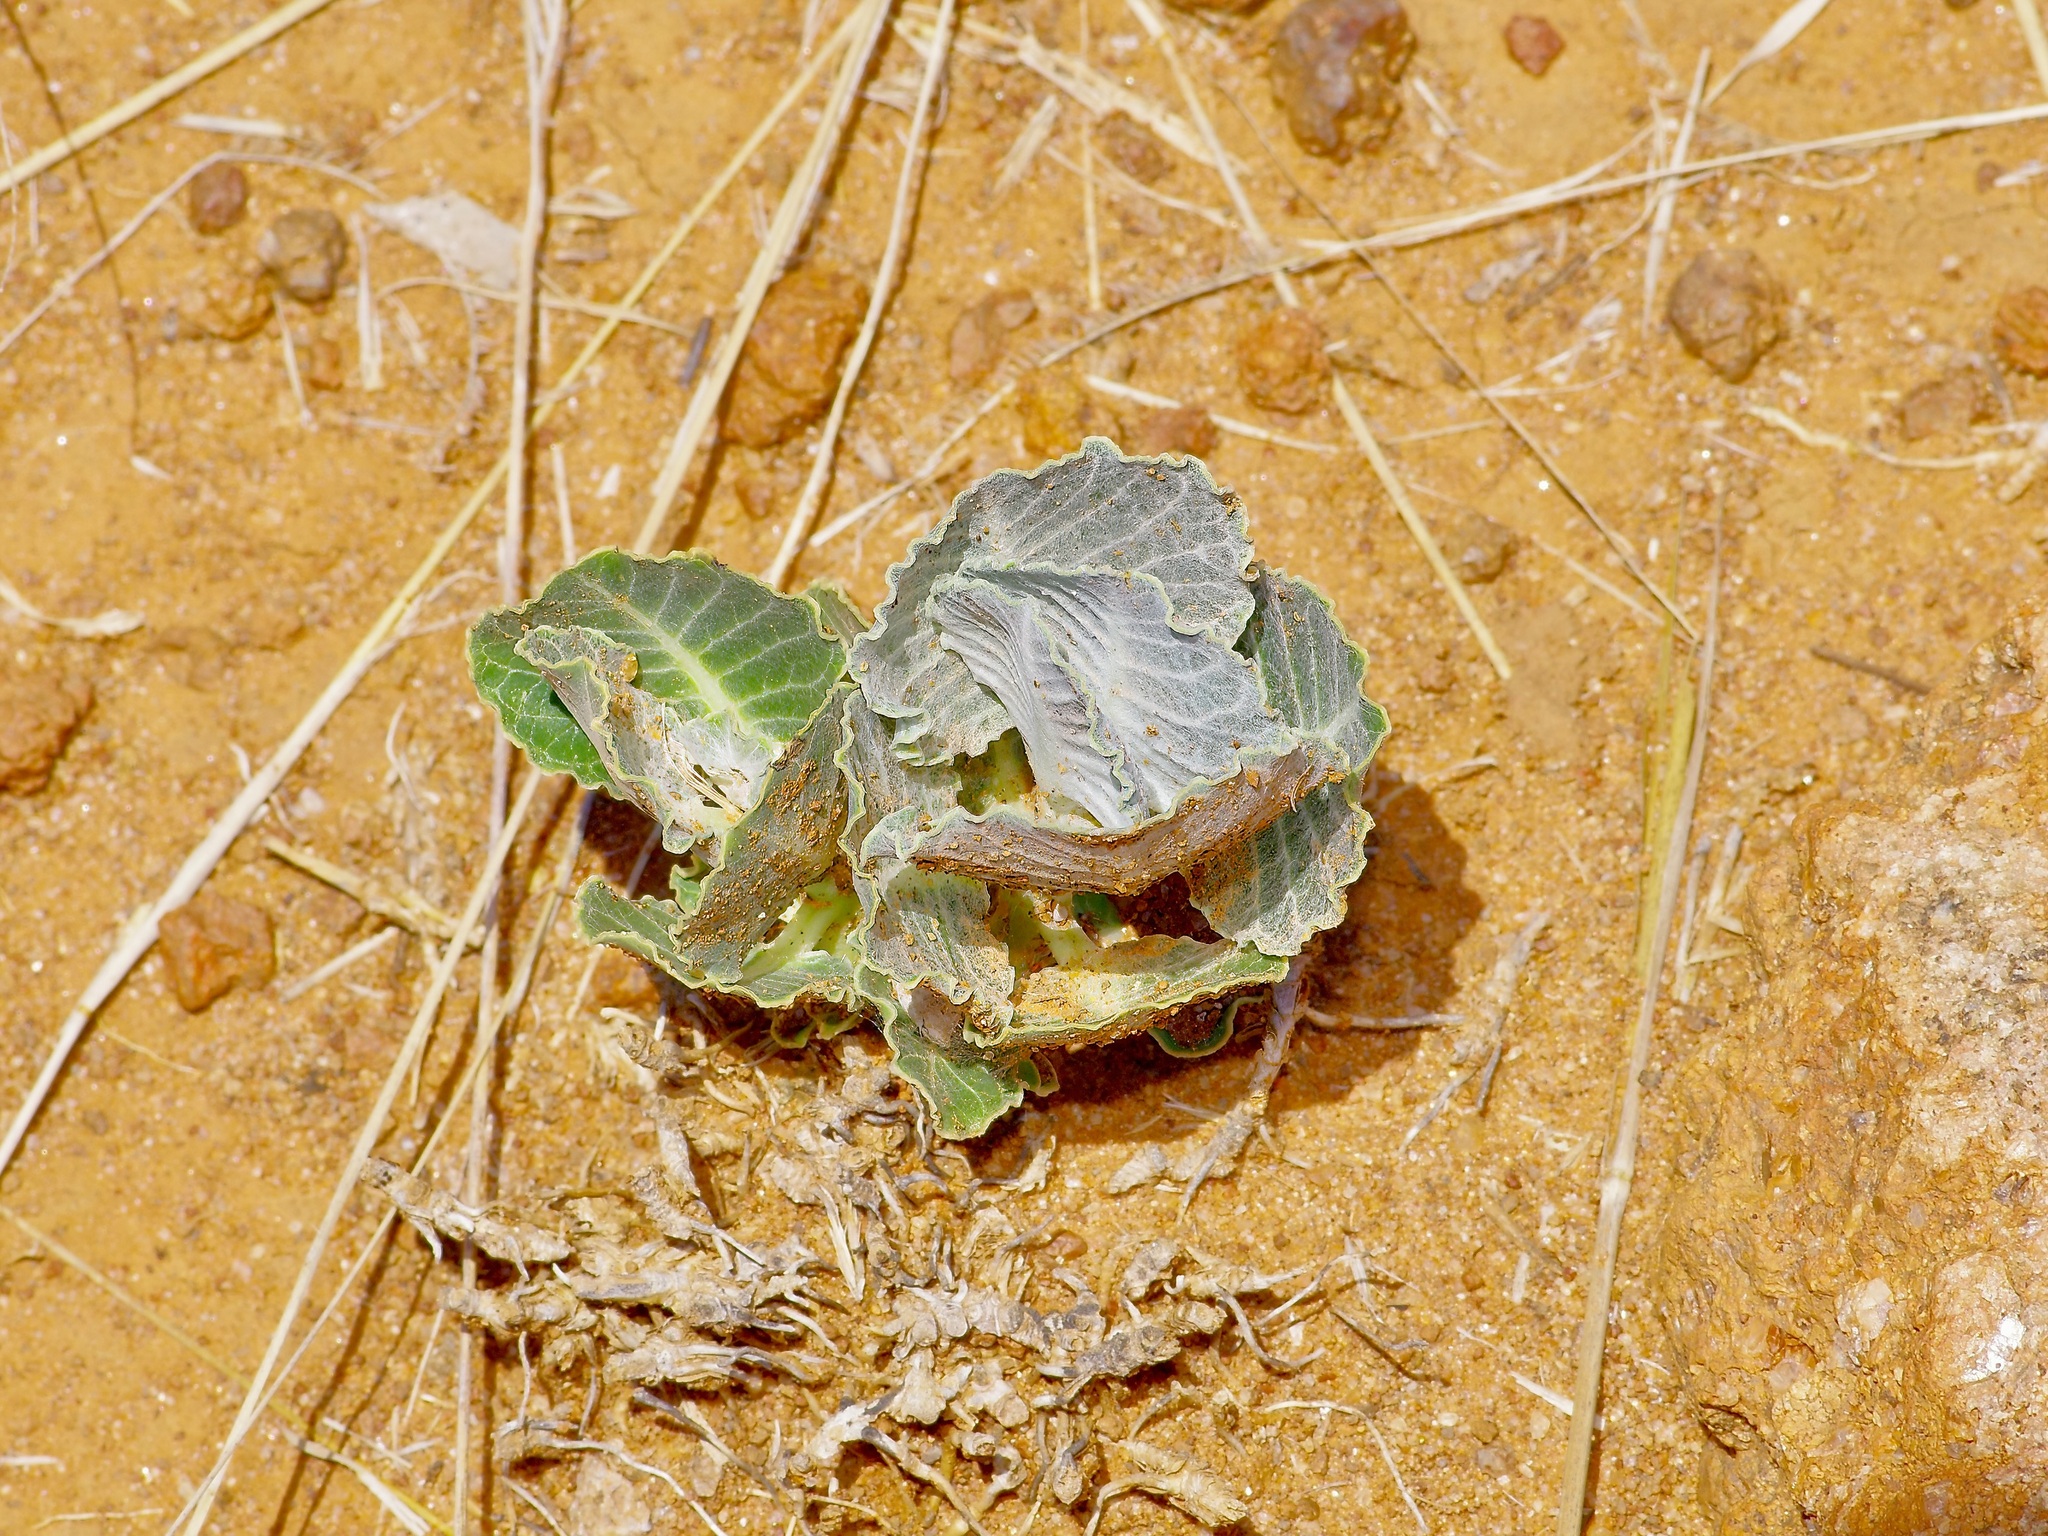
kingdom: Plantae
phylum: Tracheophyta
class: Magnoliopsida
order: Gentianales
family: Apocynaceae
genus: Asclepias
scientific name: Asclepias nummularia
